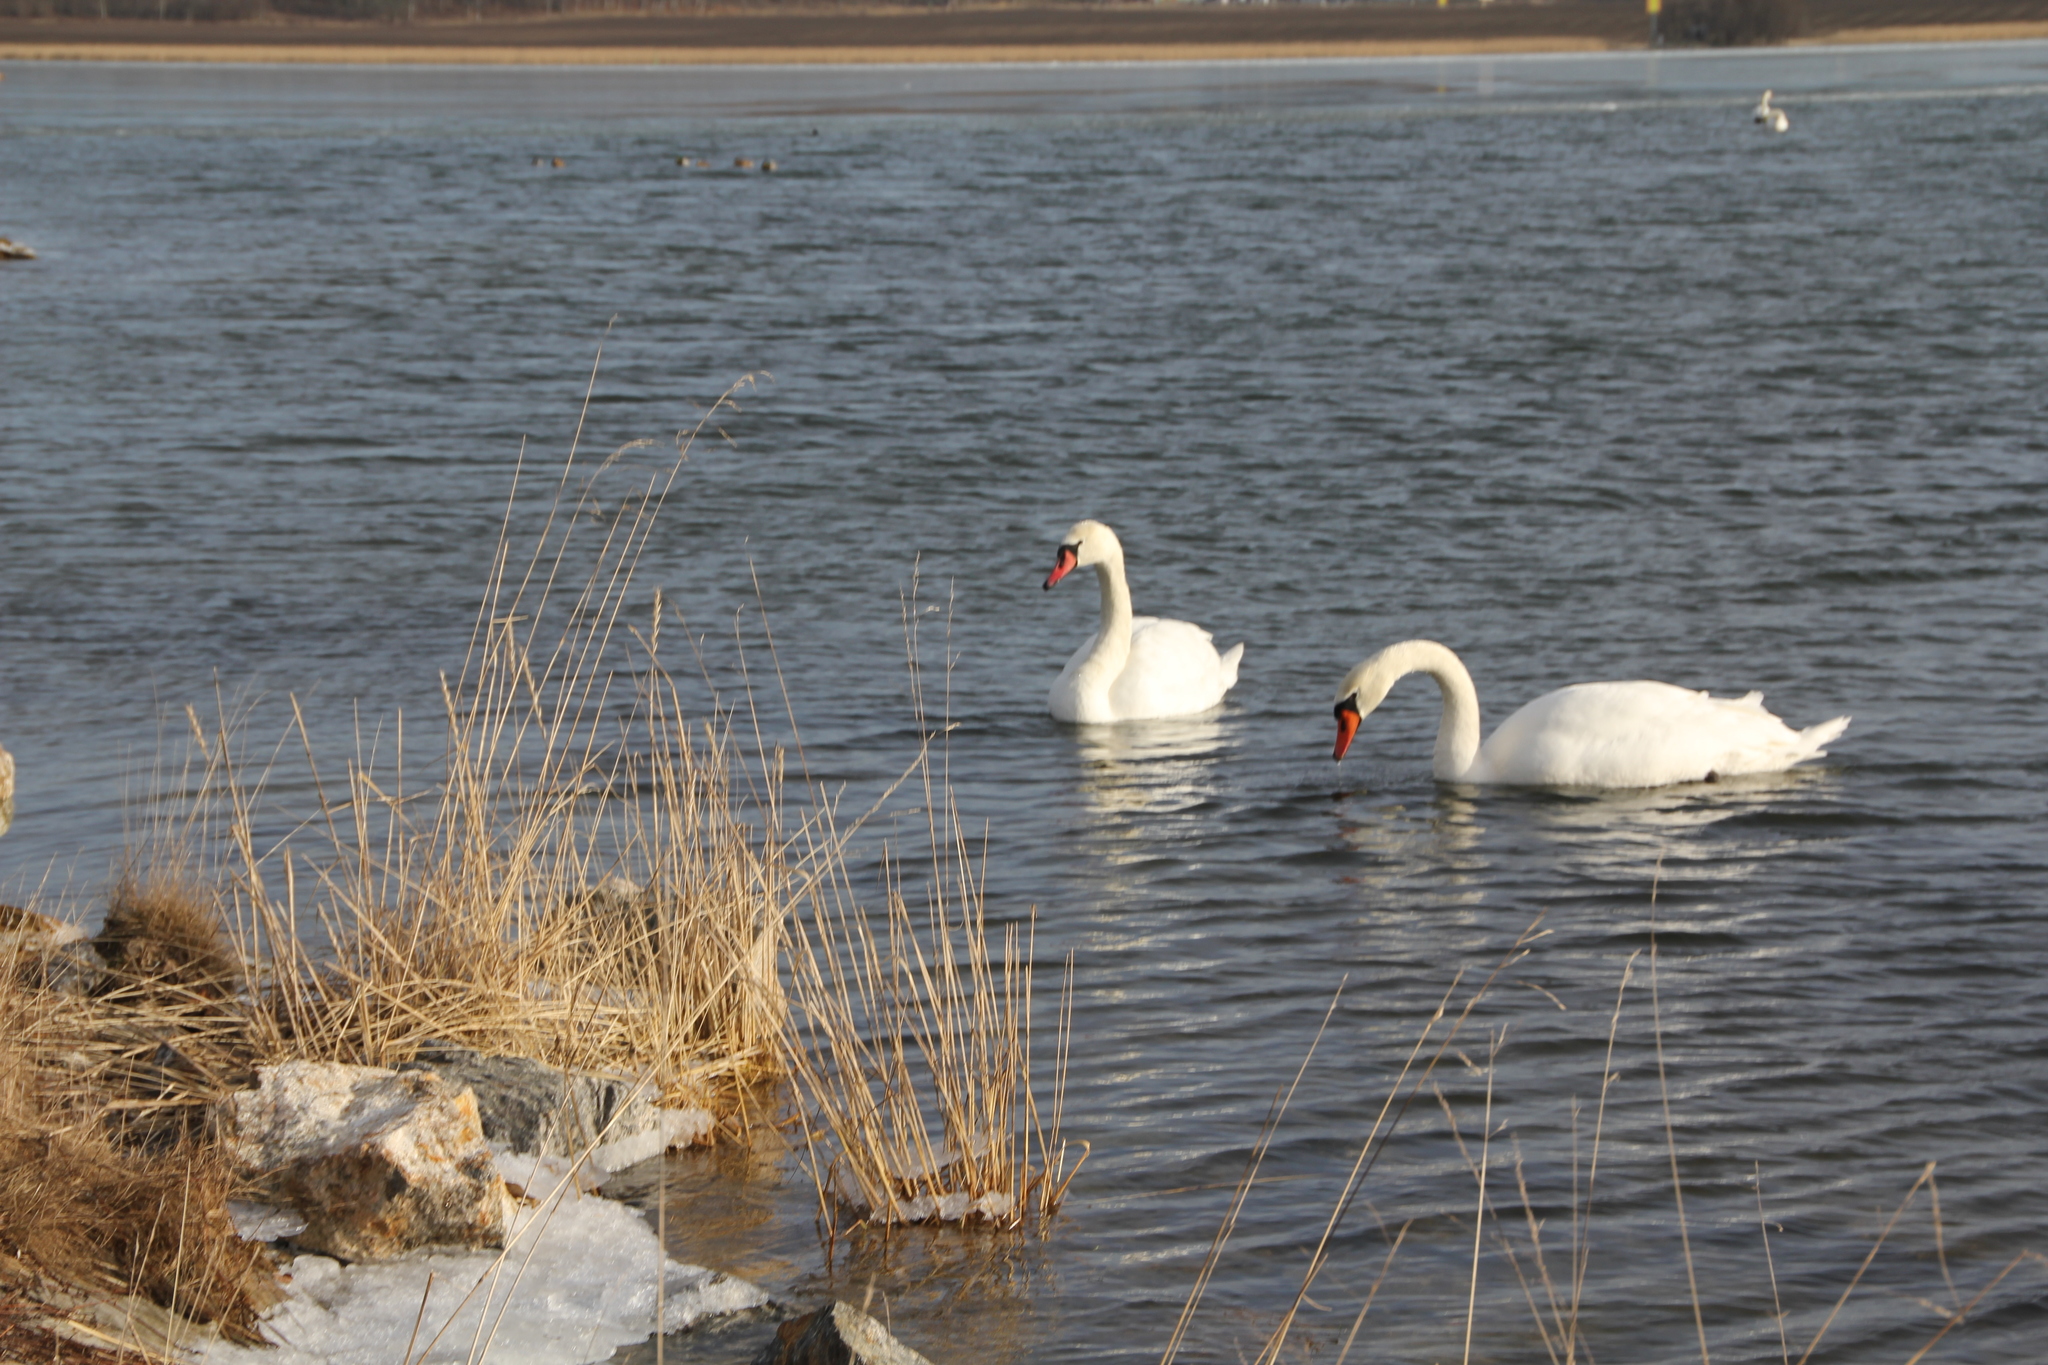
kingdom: Animalia
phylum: Chordata
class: Aves
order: Anseriformes
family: Anatidae
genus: Cygnus
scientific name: Cygnus olor
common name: Mute swan
